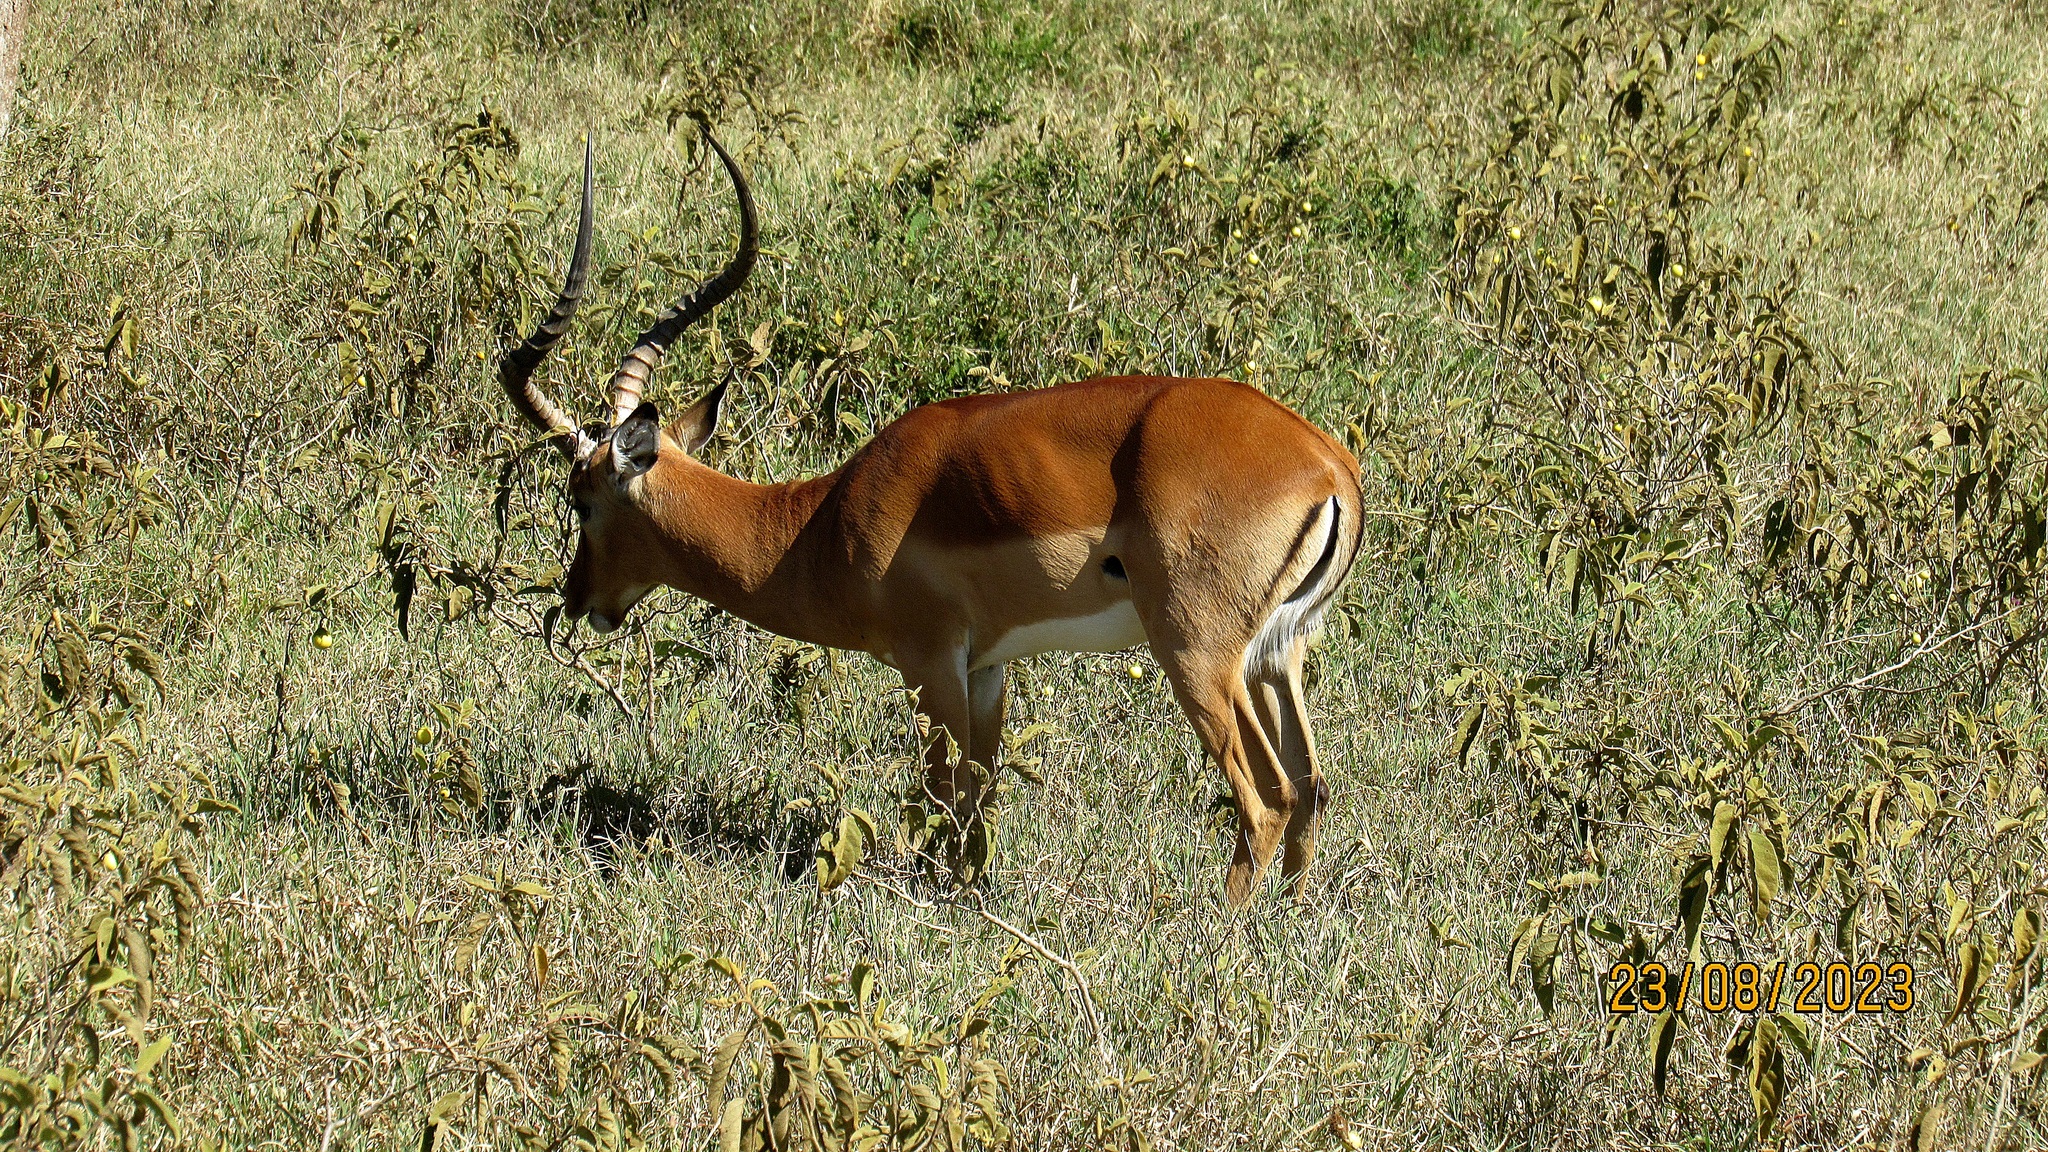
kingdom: Animalia
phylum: Chordata
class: Mammalia
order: Artiodactyla
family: Bovidae
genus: Aepyceros
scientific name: Aepyceros melampus
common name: Impala
